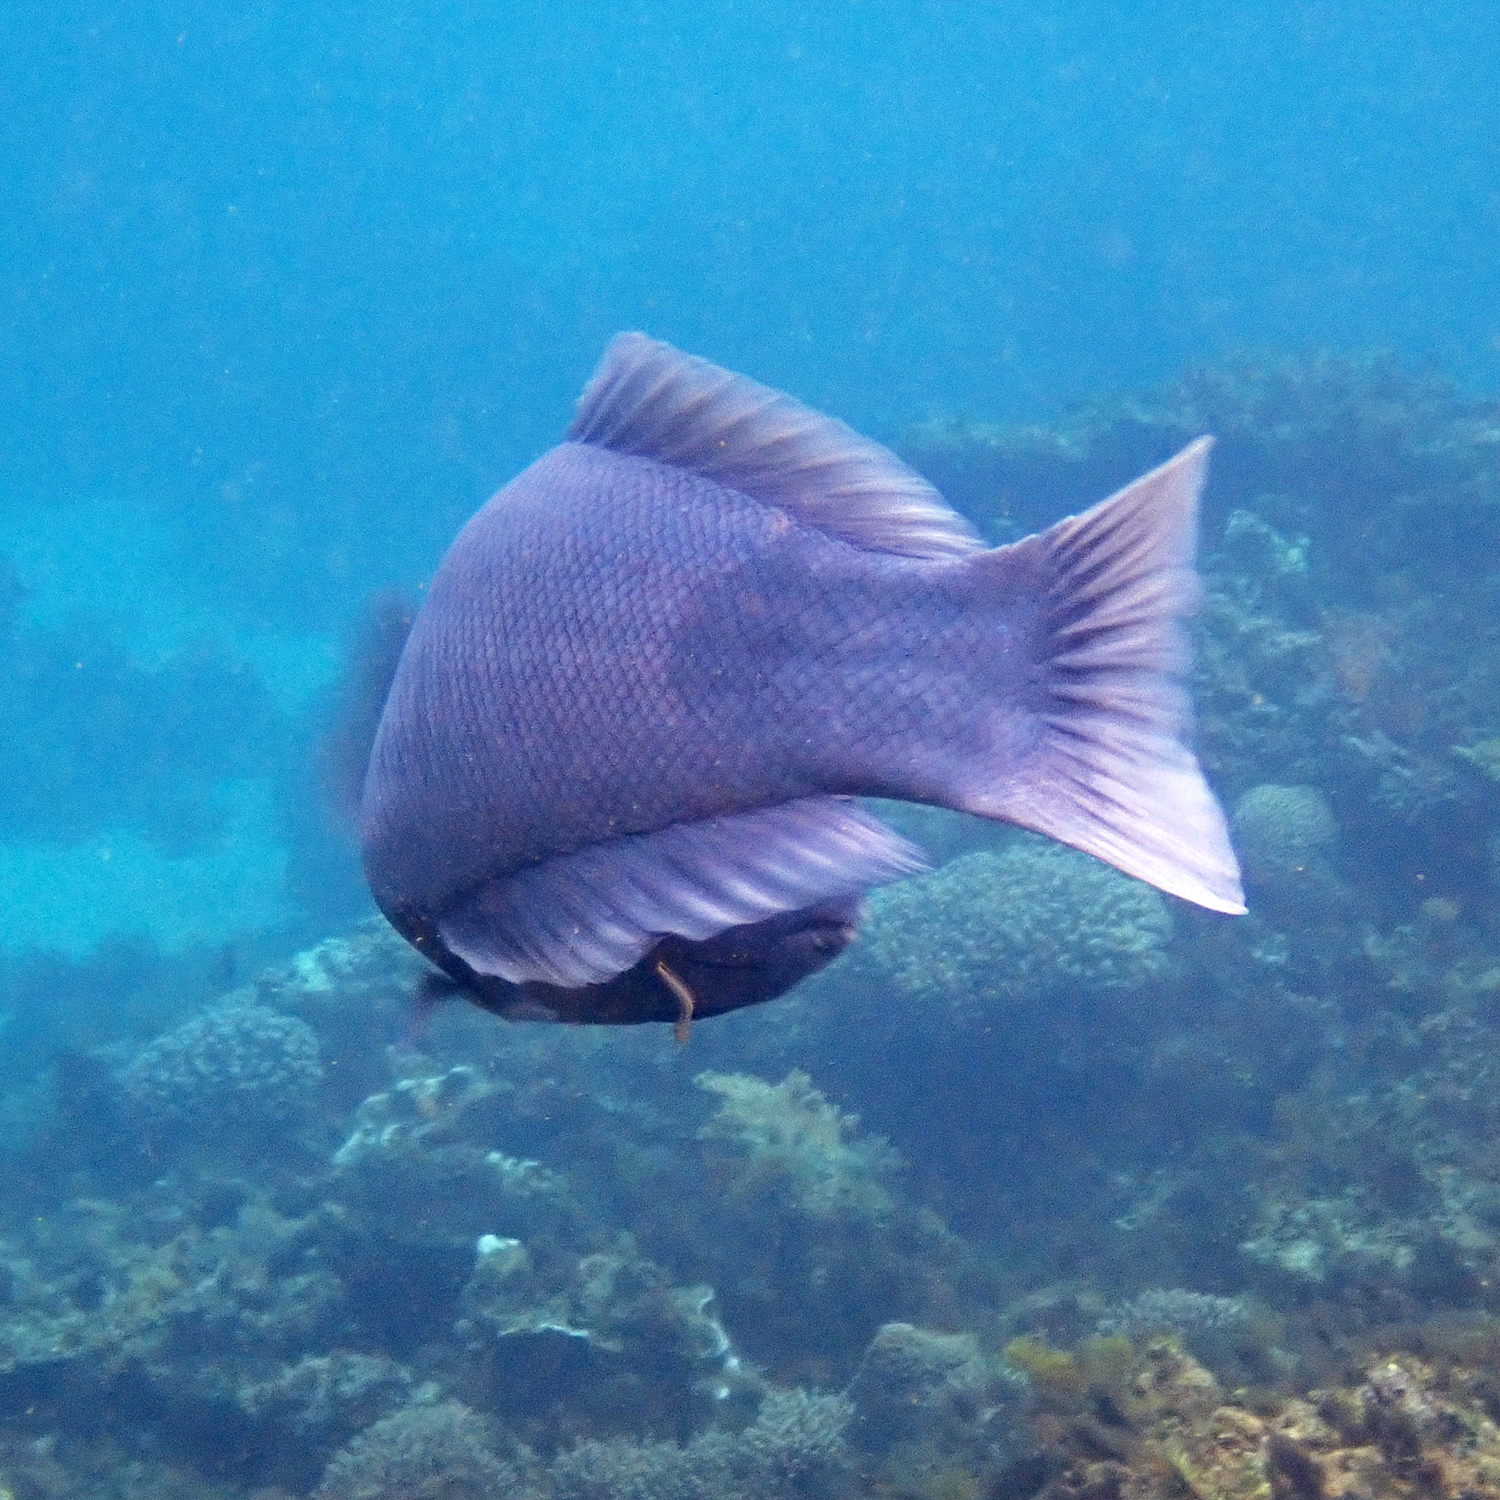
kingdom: Animalia
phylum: Chordata
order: Perciformes
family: Labridae
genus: Coris
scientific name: Coris bulbifrons
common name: Doubleheader
